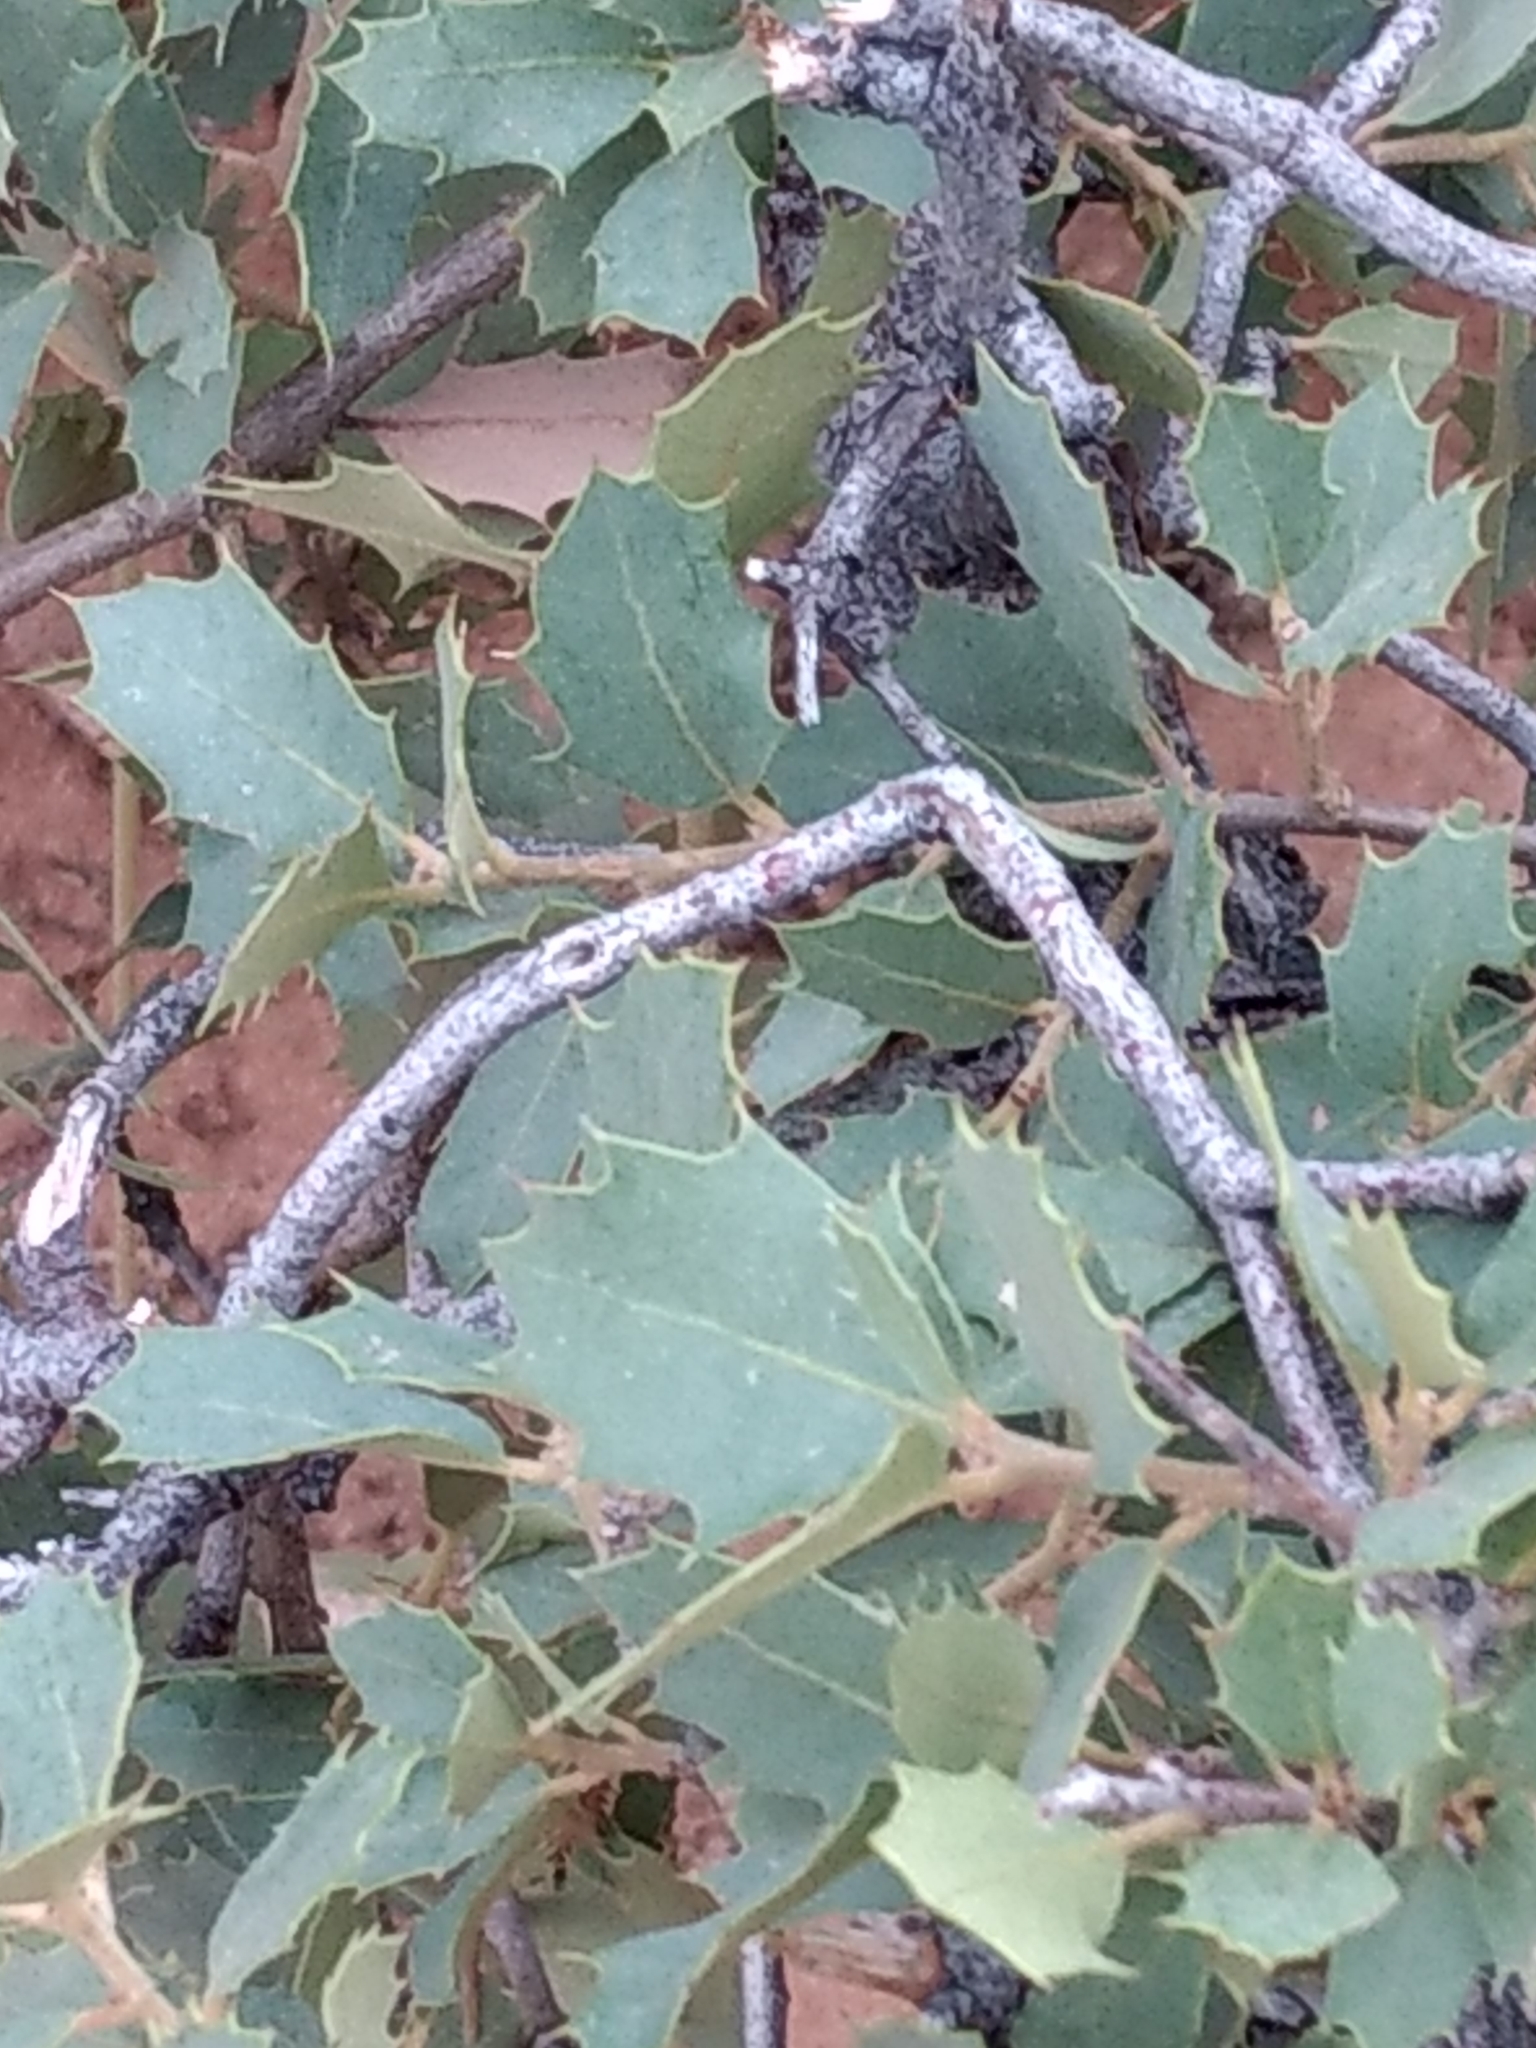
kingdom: Plantae
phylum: Tracheophyta
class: Magnoliopsida
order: Fagales
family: Fagaceae
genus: Quercus
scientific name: Quercus turbinella
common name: Sonoran scrub oak
